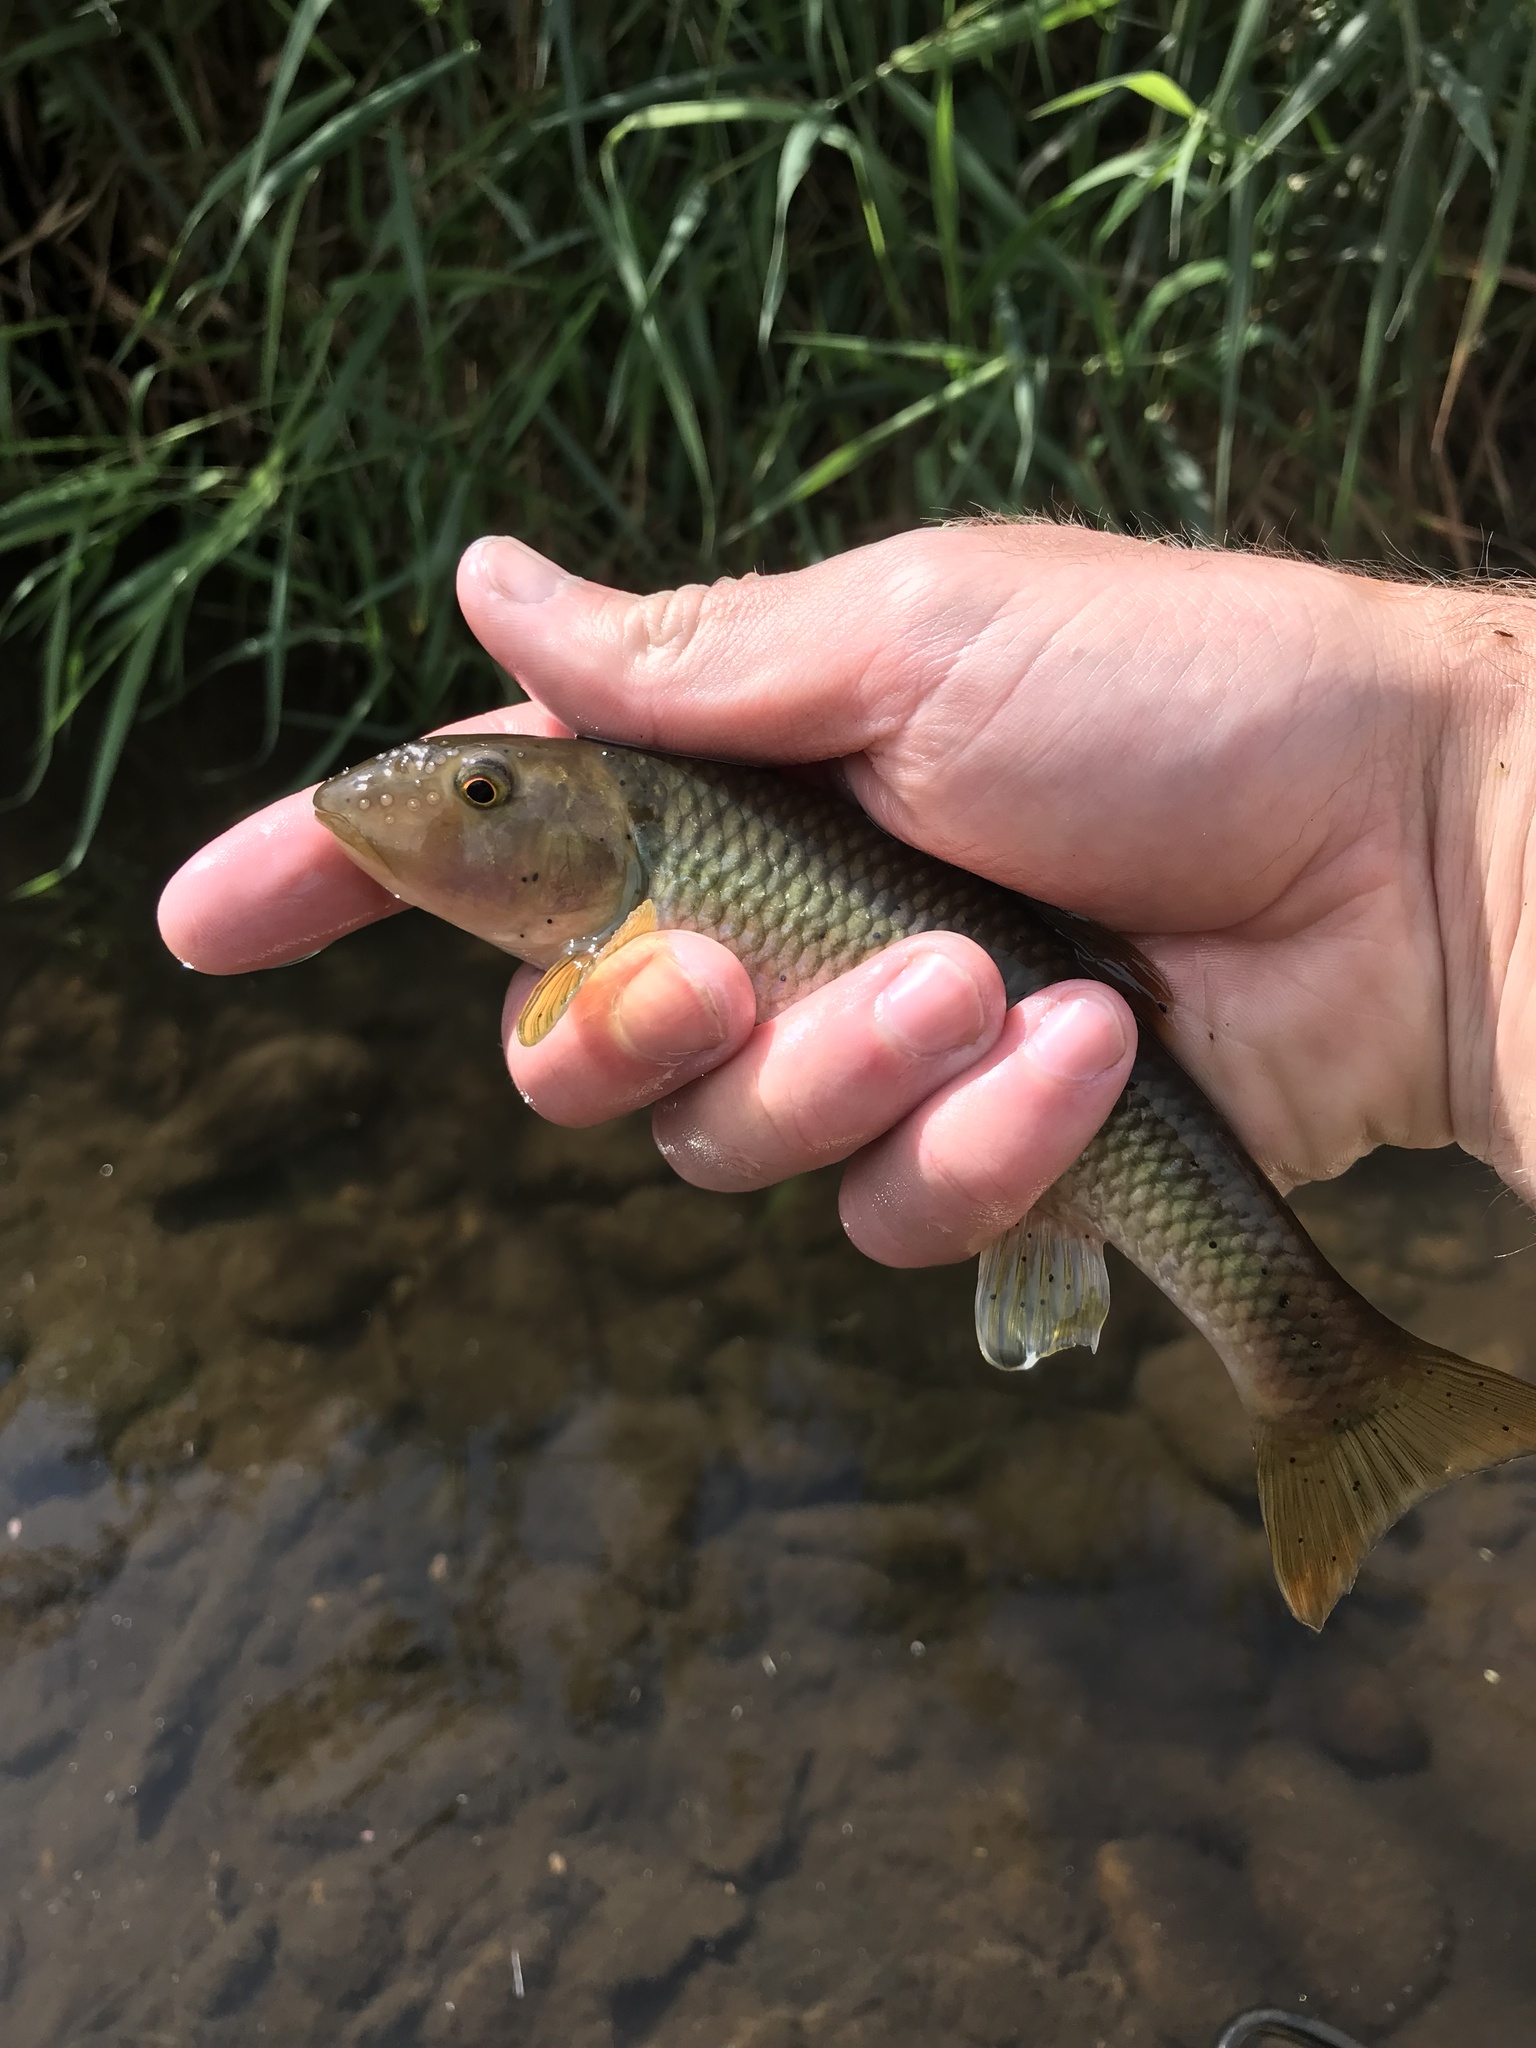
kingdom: Animalia
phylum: Chordata
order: Cypriniformes
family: Cyprinidae
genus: Nocomis
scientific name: Nocomis micropogon
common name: River chub
